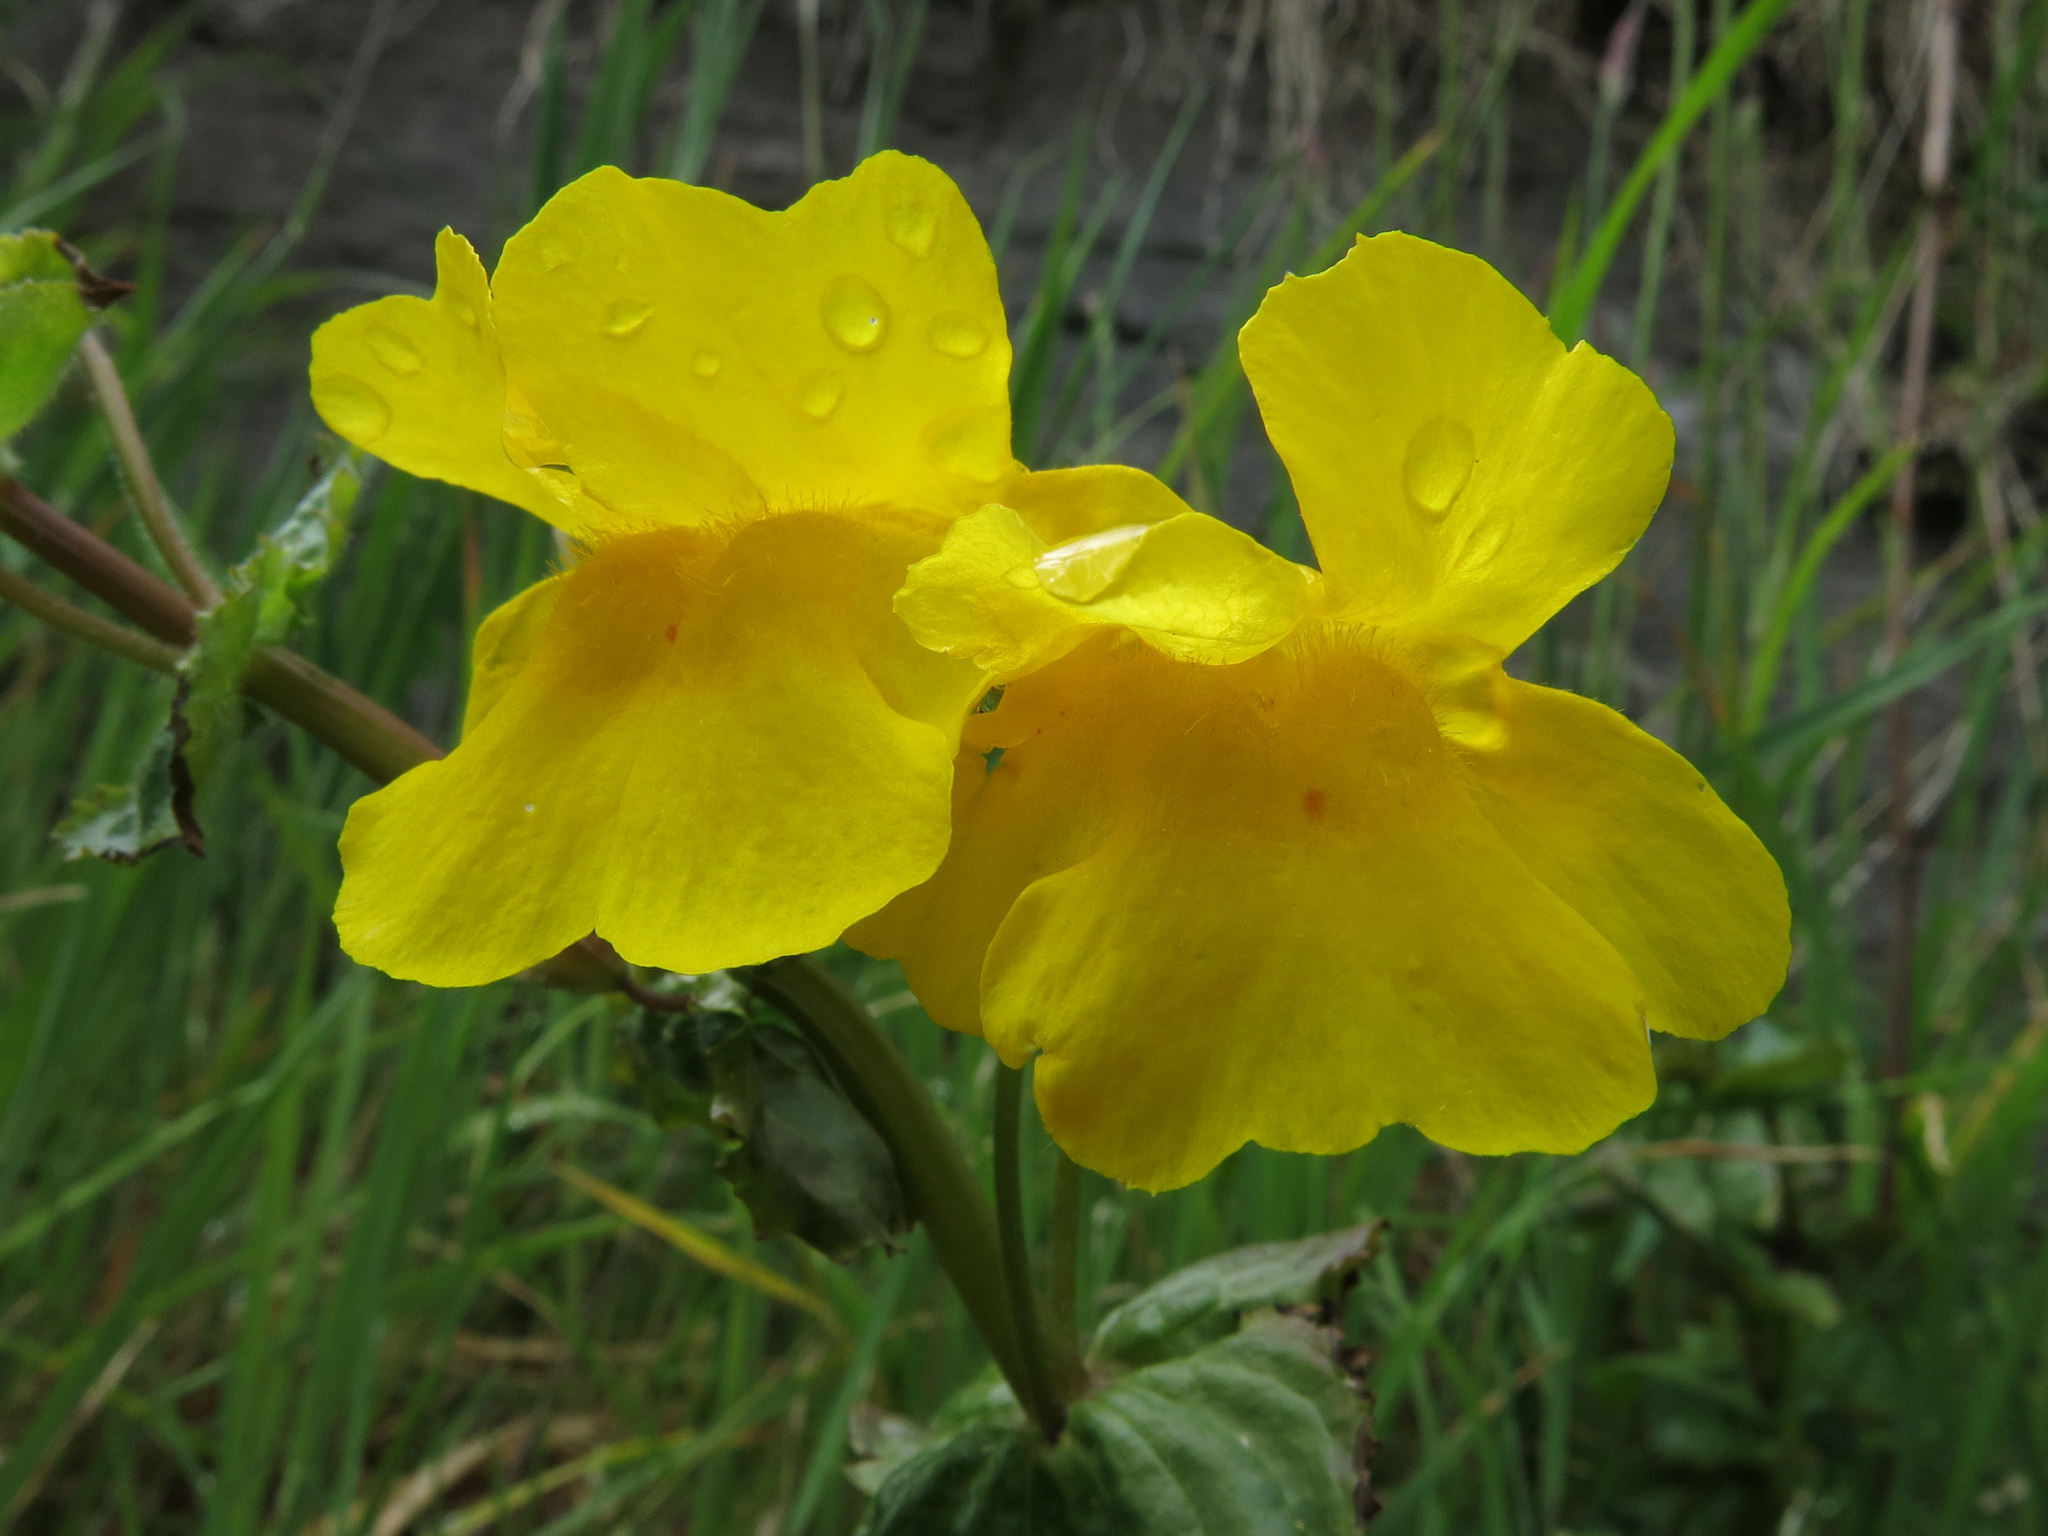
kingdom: Plantae
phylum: Tracheophyta
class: Magnoliopsida
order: Lamiales
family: Phrymaceae
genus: Erythranthe
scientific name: Erythranthe guttata
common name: Monkeyflower
